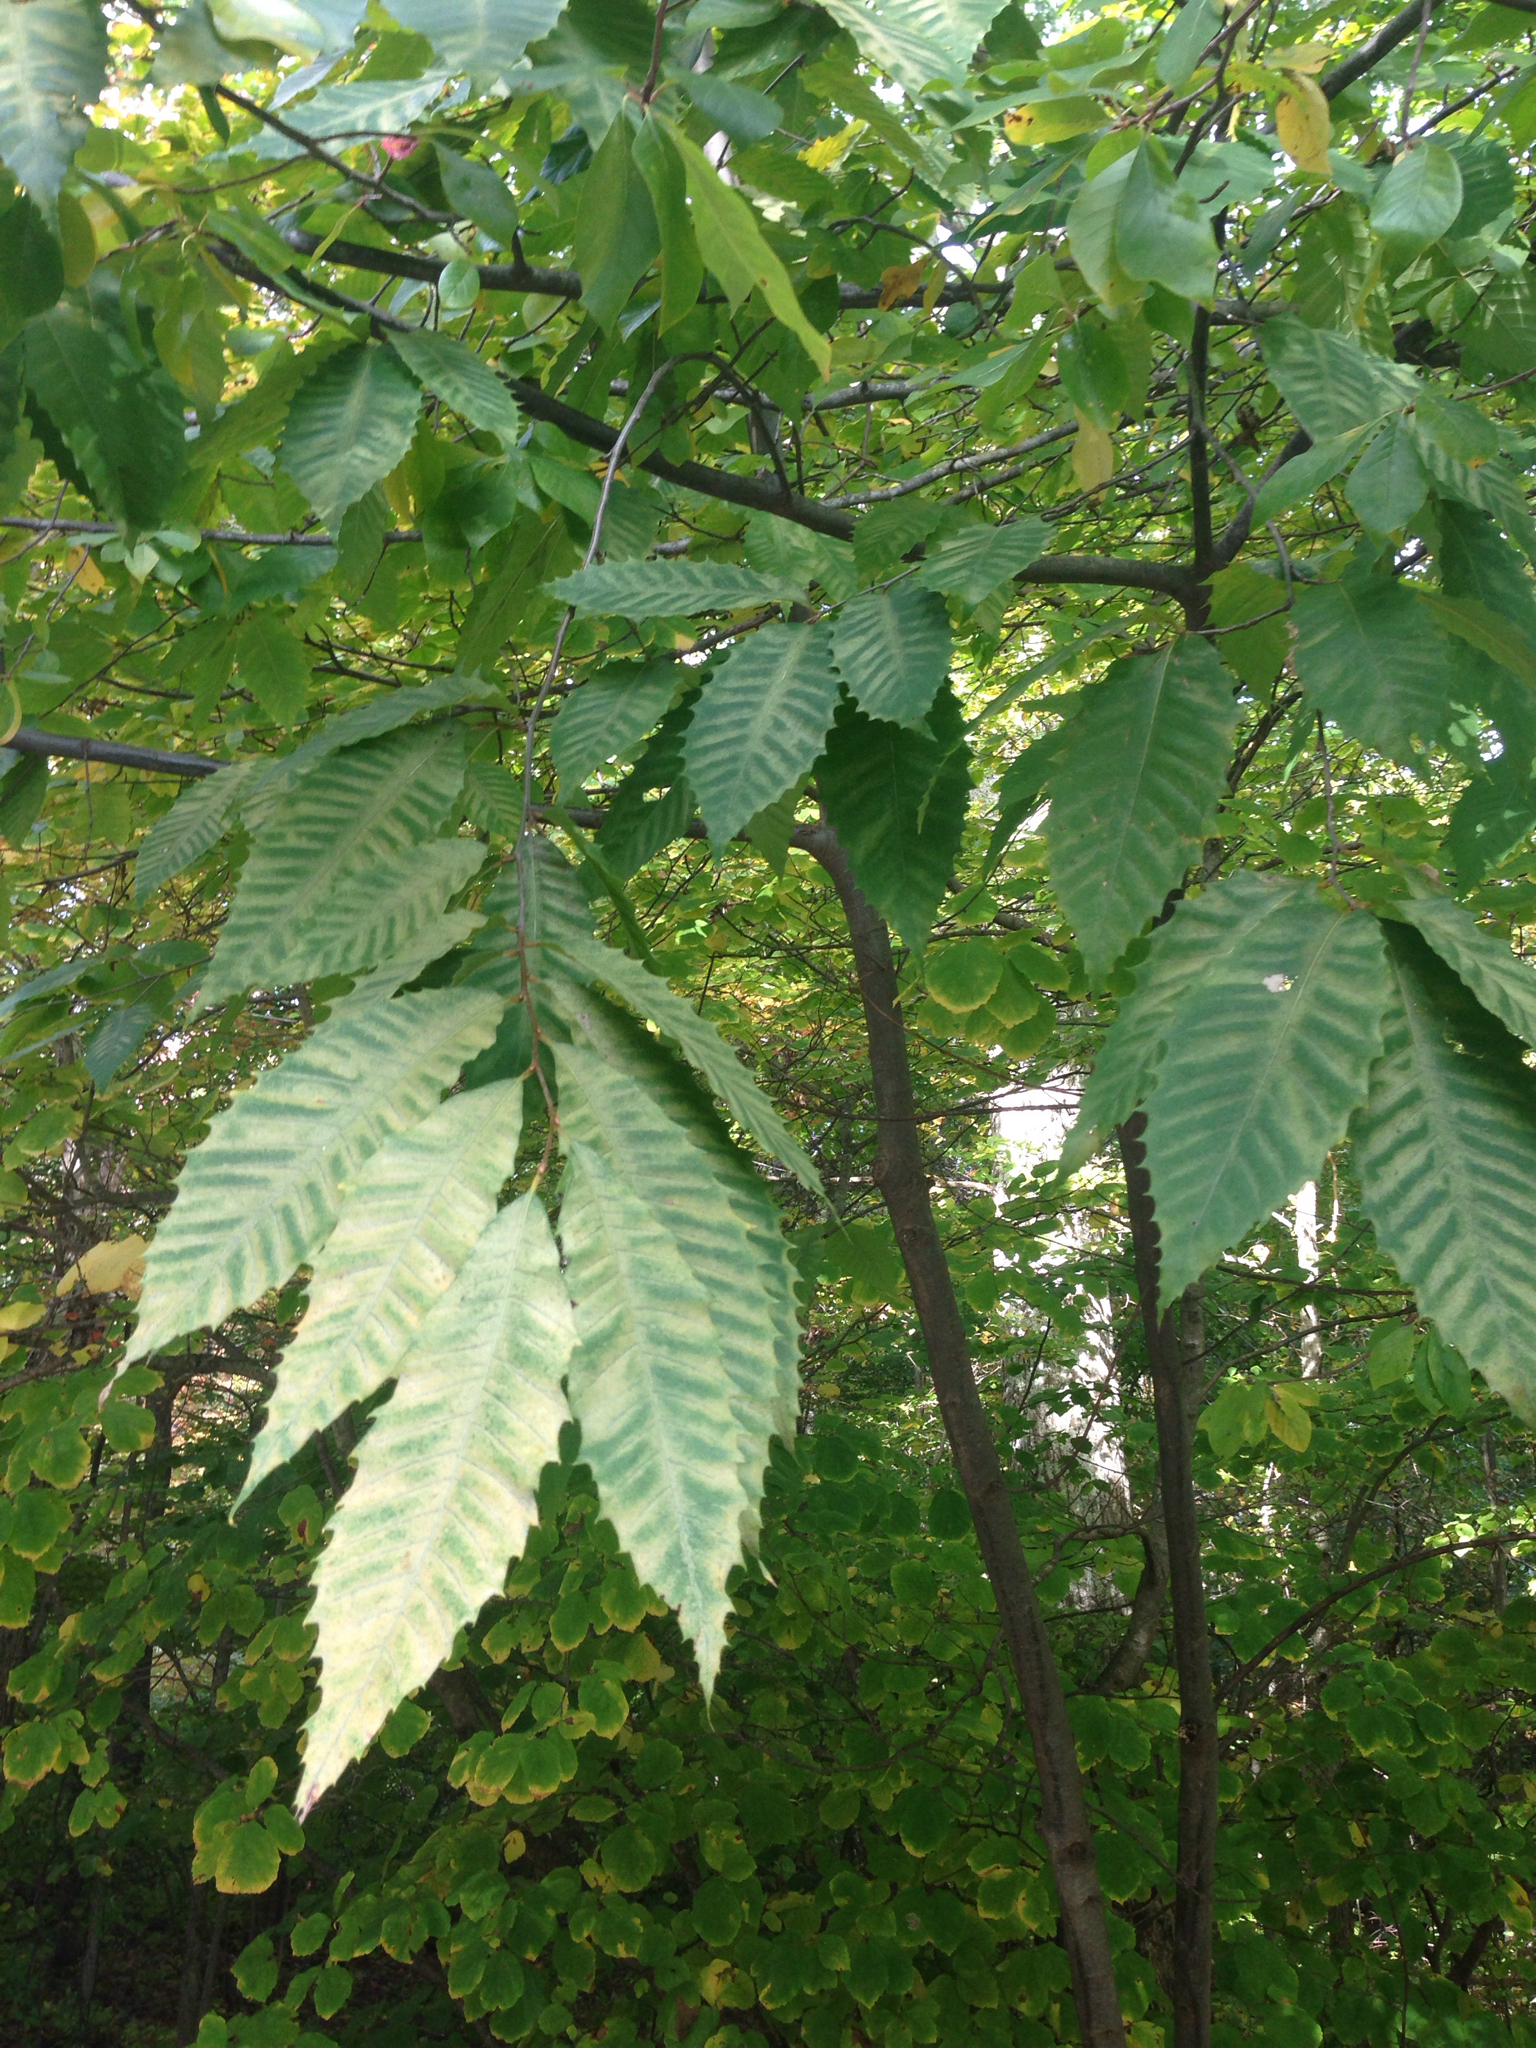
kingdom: Plantae
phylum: Tracheophyta
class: Magnoliopsida
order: Fagales
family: Fagaceae
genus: Castanea
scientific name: Castanea dentata
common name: American chestnut
